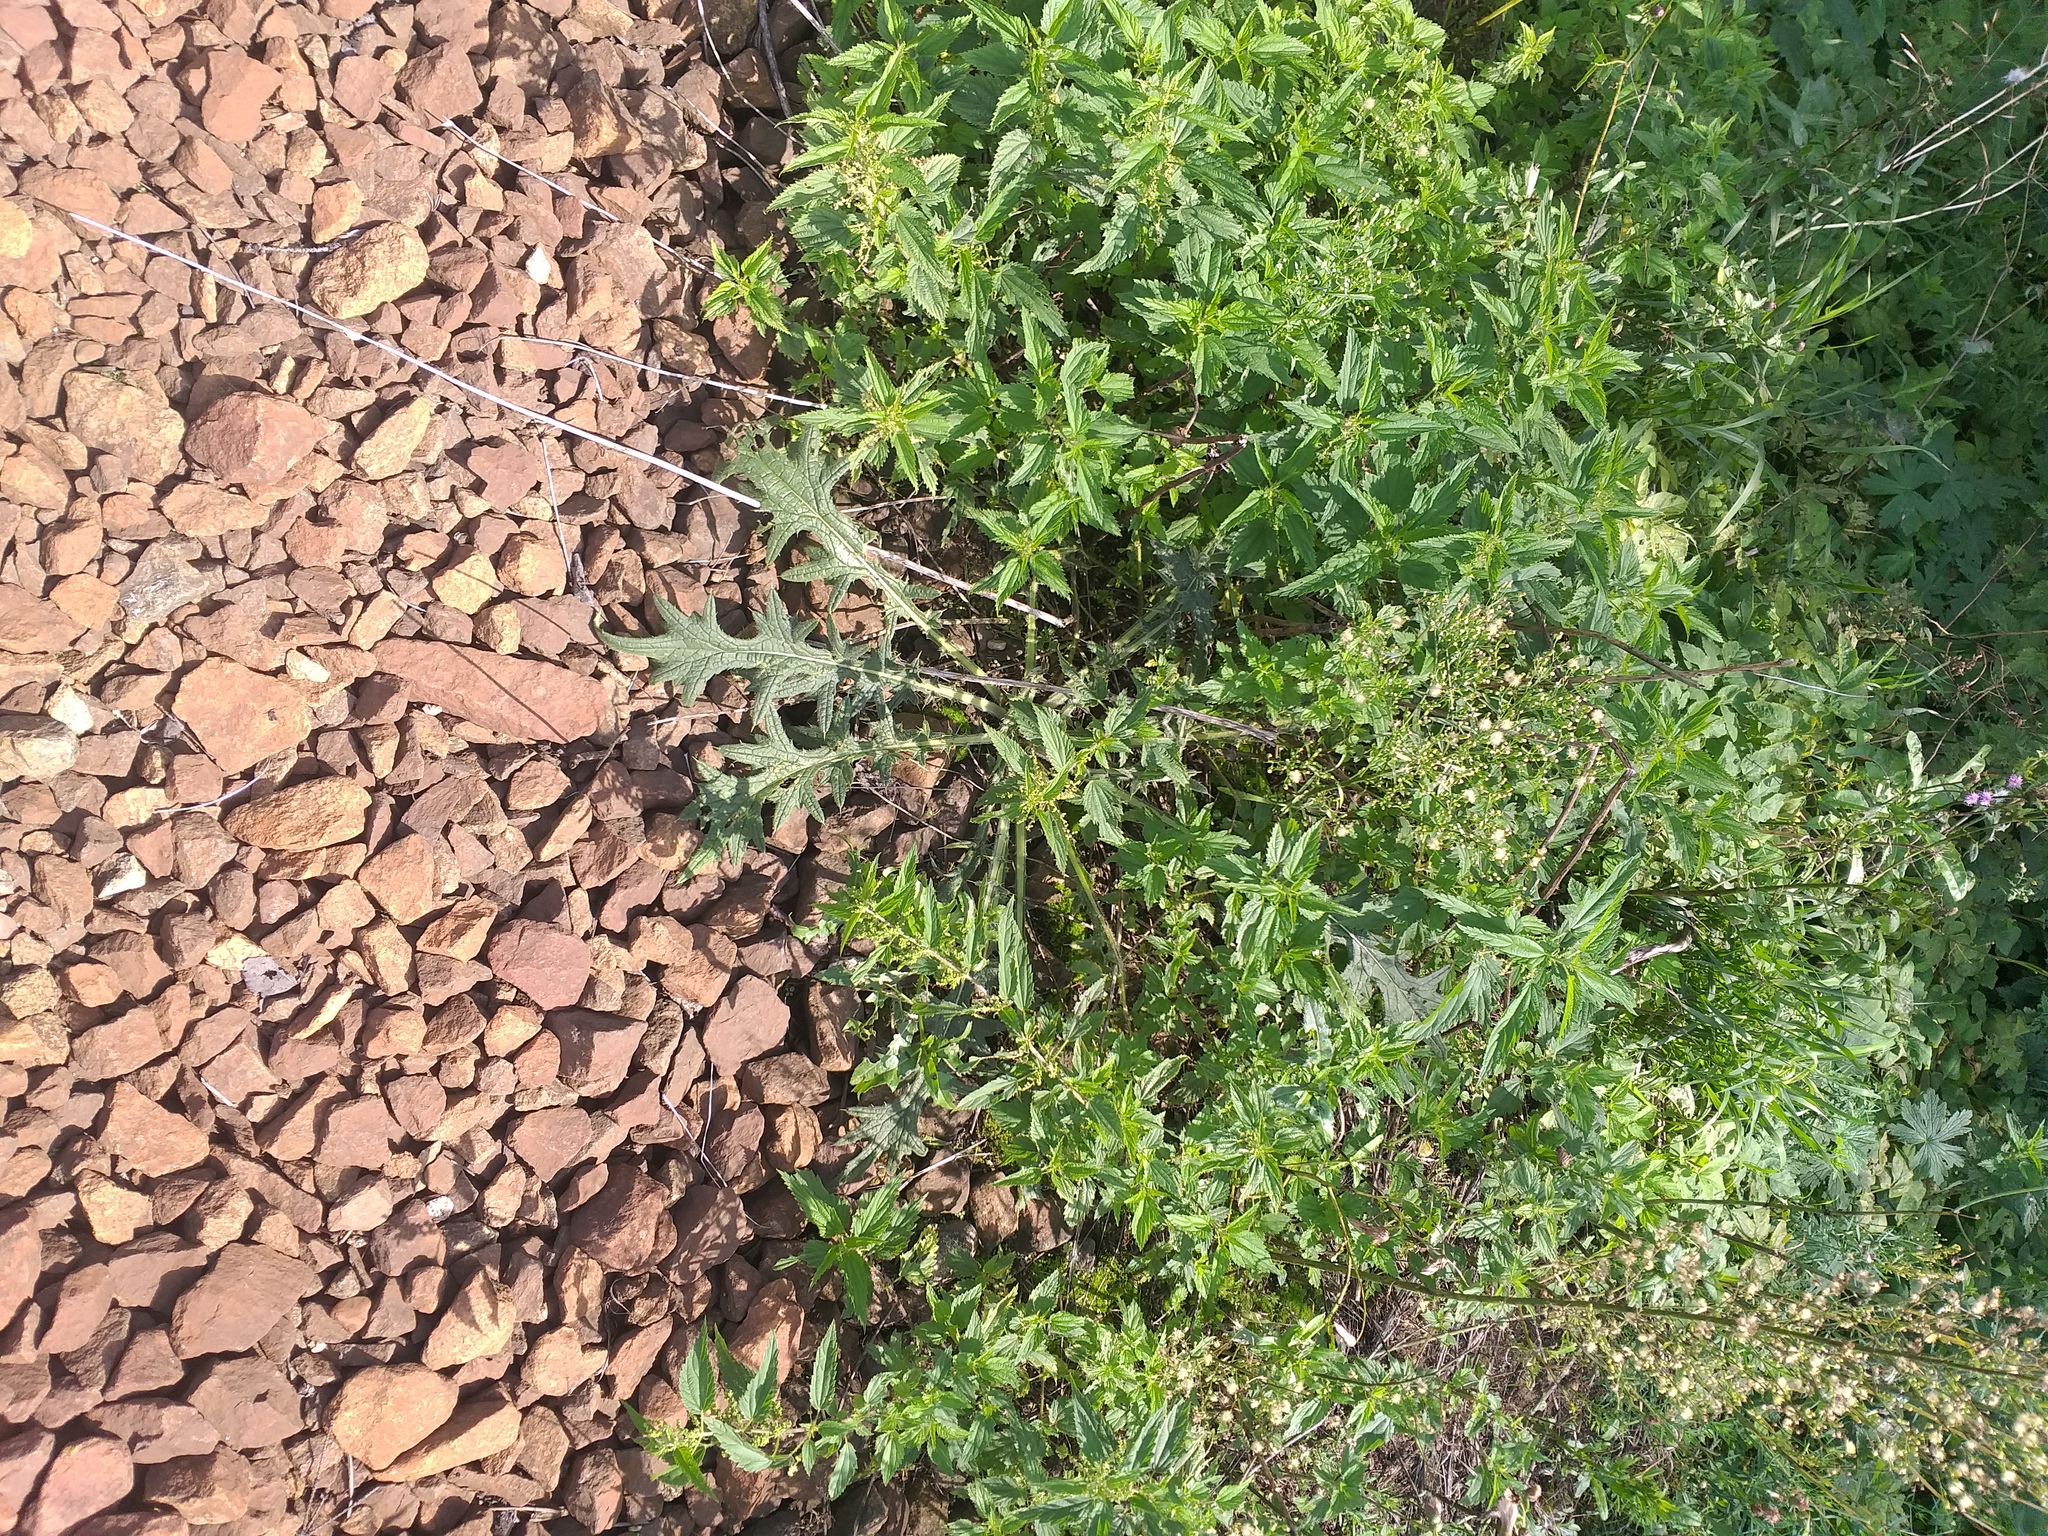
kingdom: Plantae
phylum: Tracheophyta
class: Magnoliopsida
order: Asterales
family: Asteraceae
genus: Cirsium
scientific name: Cirsium vulgare
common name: Bull thistle
